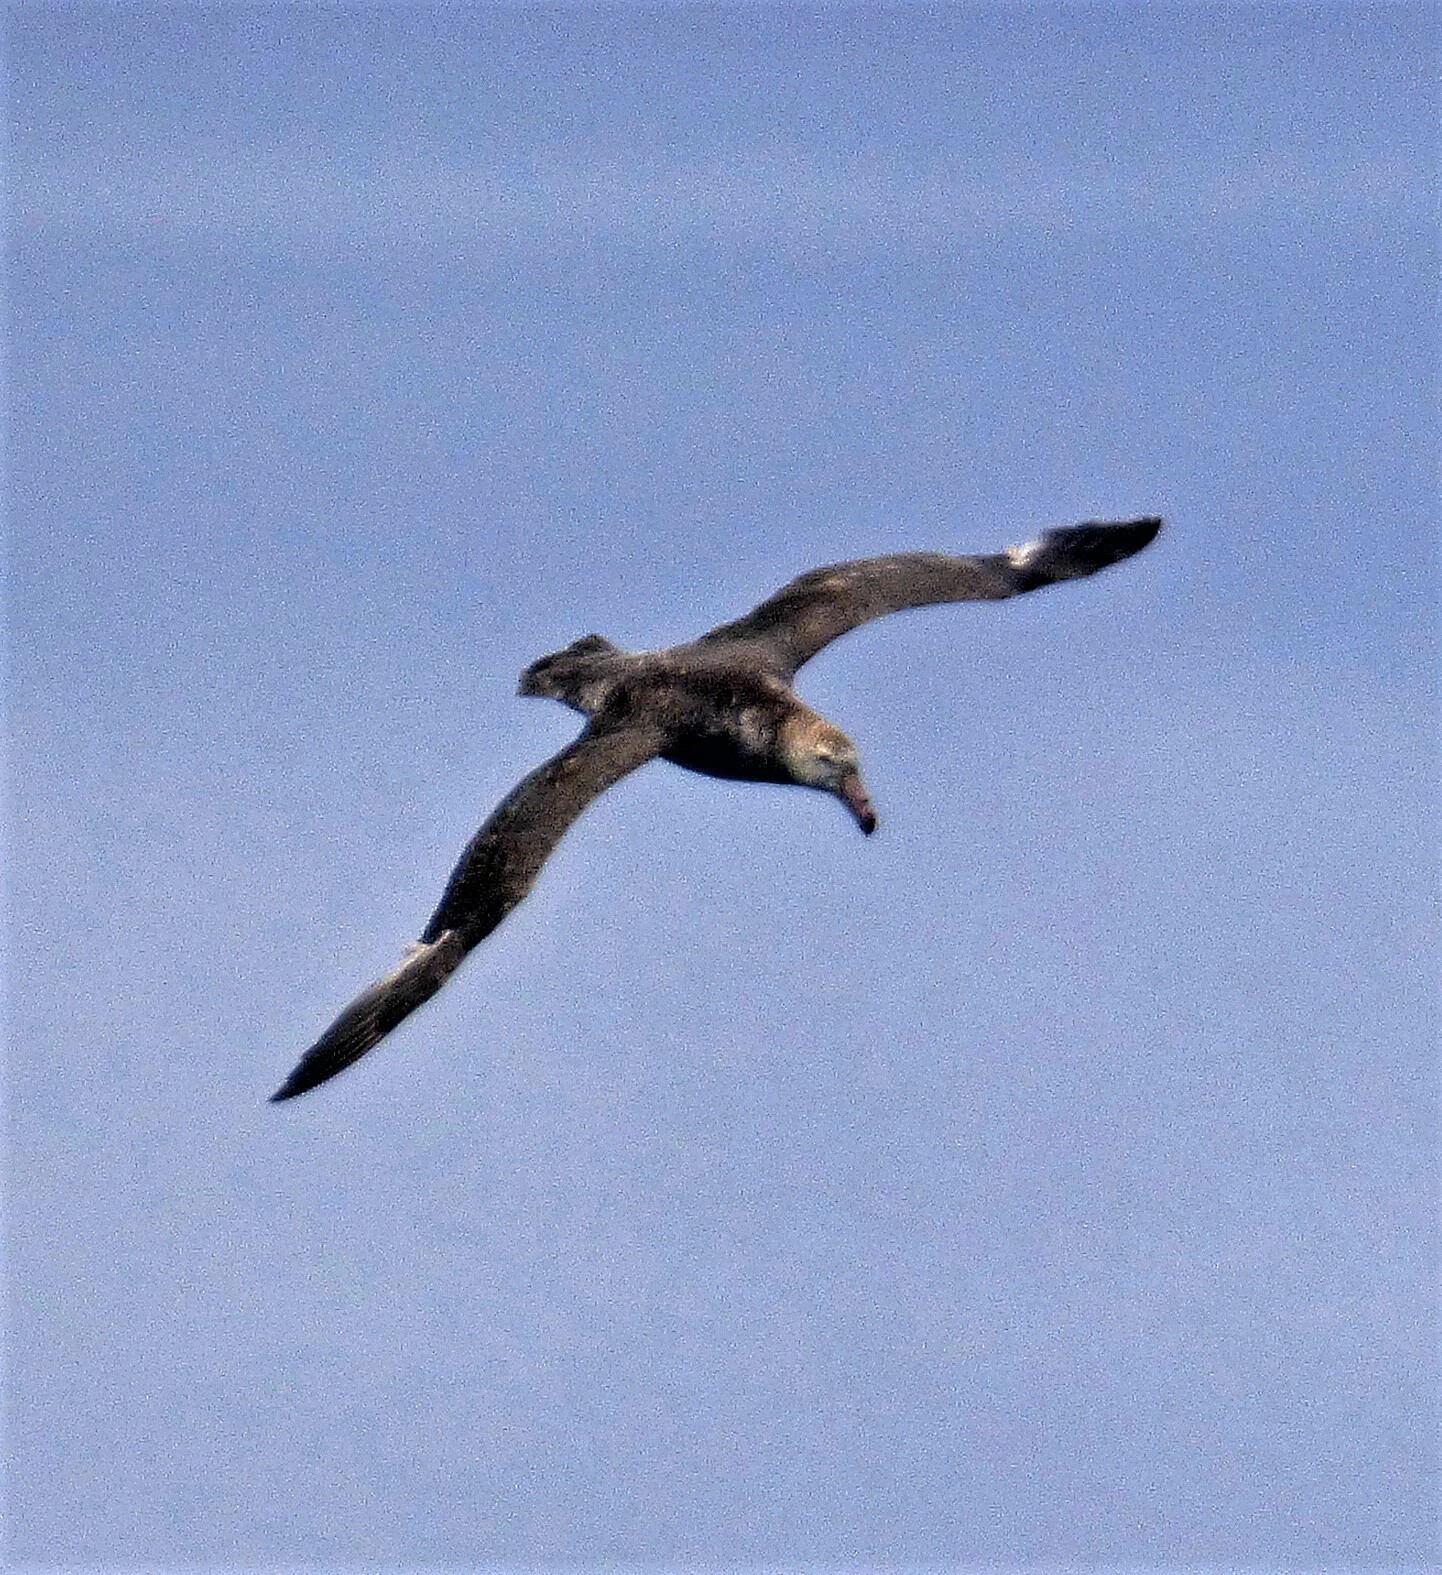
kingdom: Animalia
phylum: Chordata
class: Aves
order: Procellariiformes
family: Procellariidae
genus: Macronectes
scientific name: Macronectes halli
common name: Northern giant petrel
